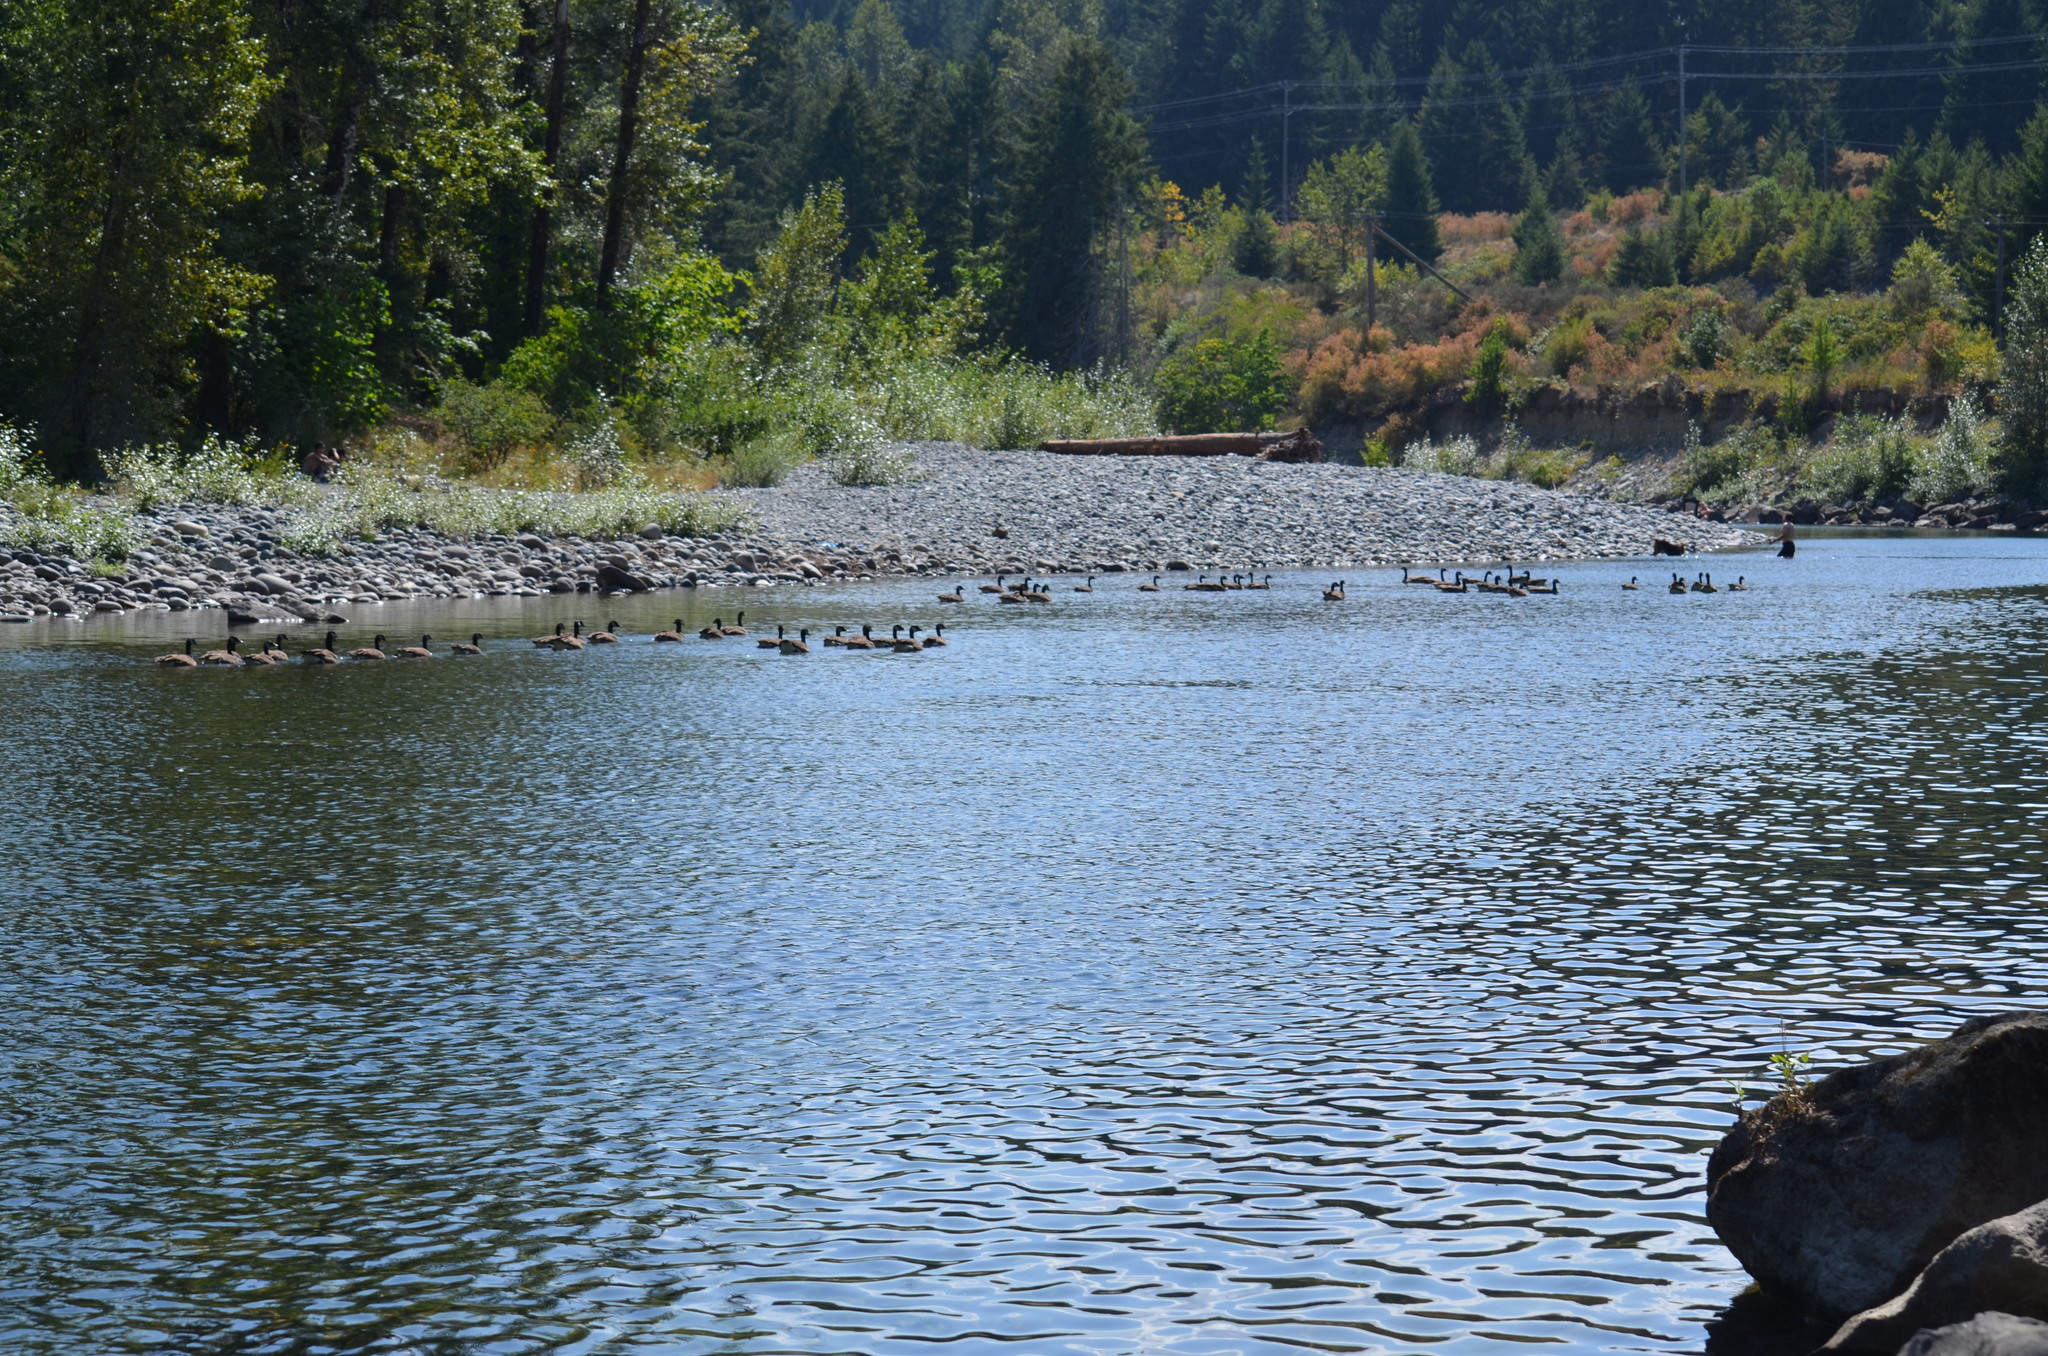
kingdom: Animalia
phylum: Chordata
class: Aves
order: Anseriformes
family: Anatidae
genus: Branta
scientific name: Branta canadensis
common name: Canada goose
